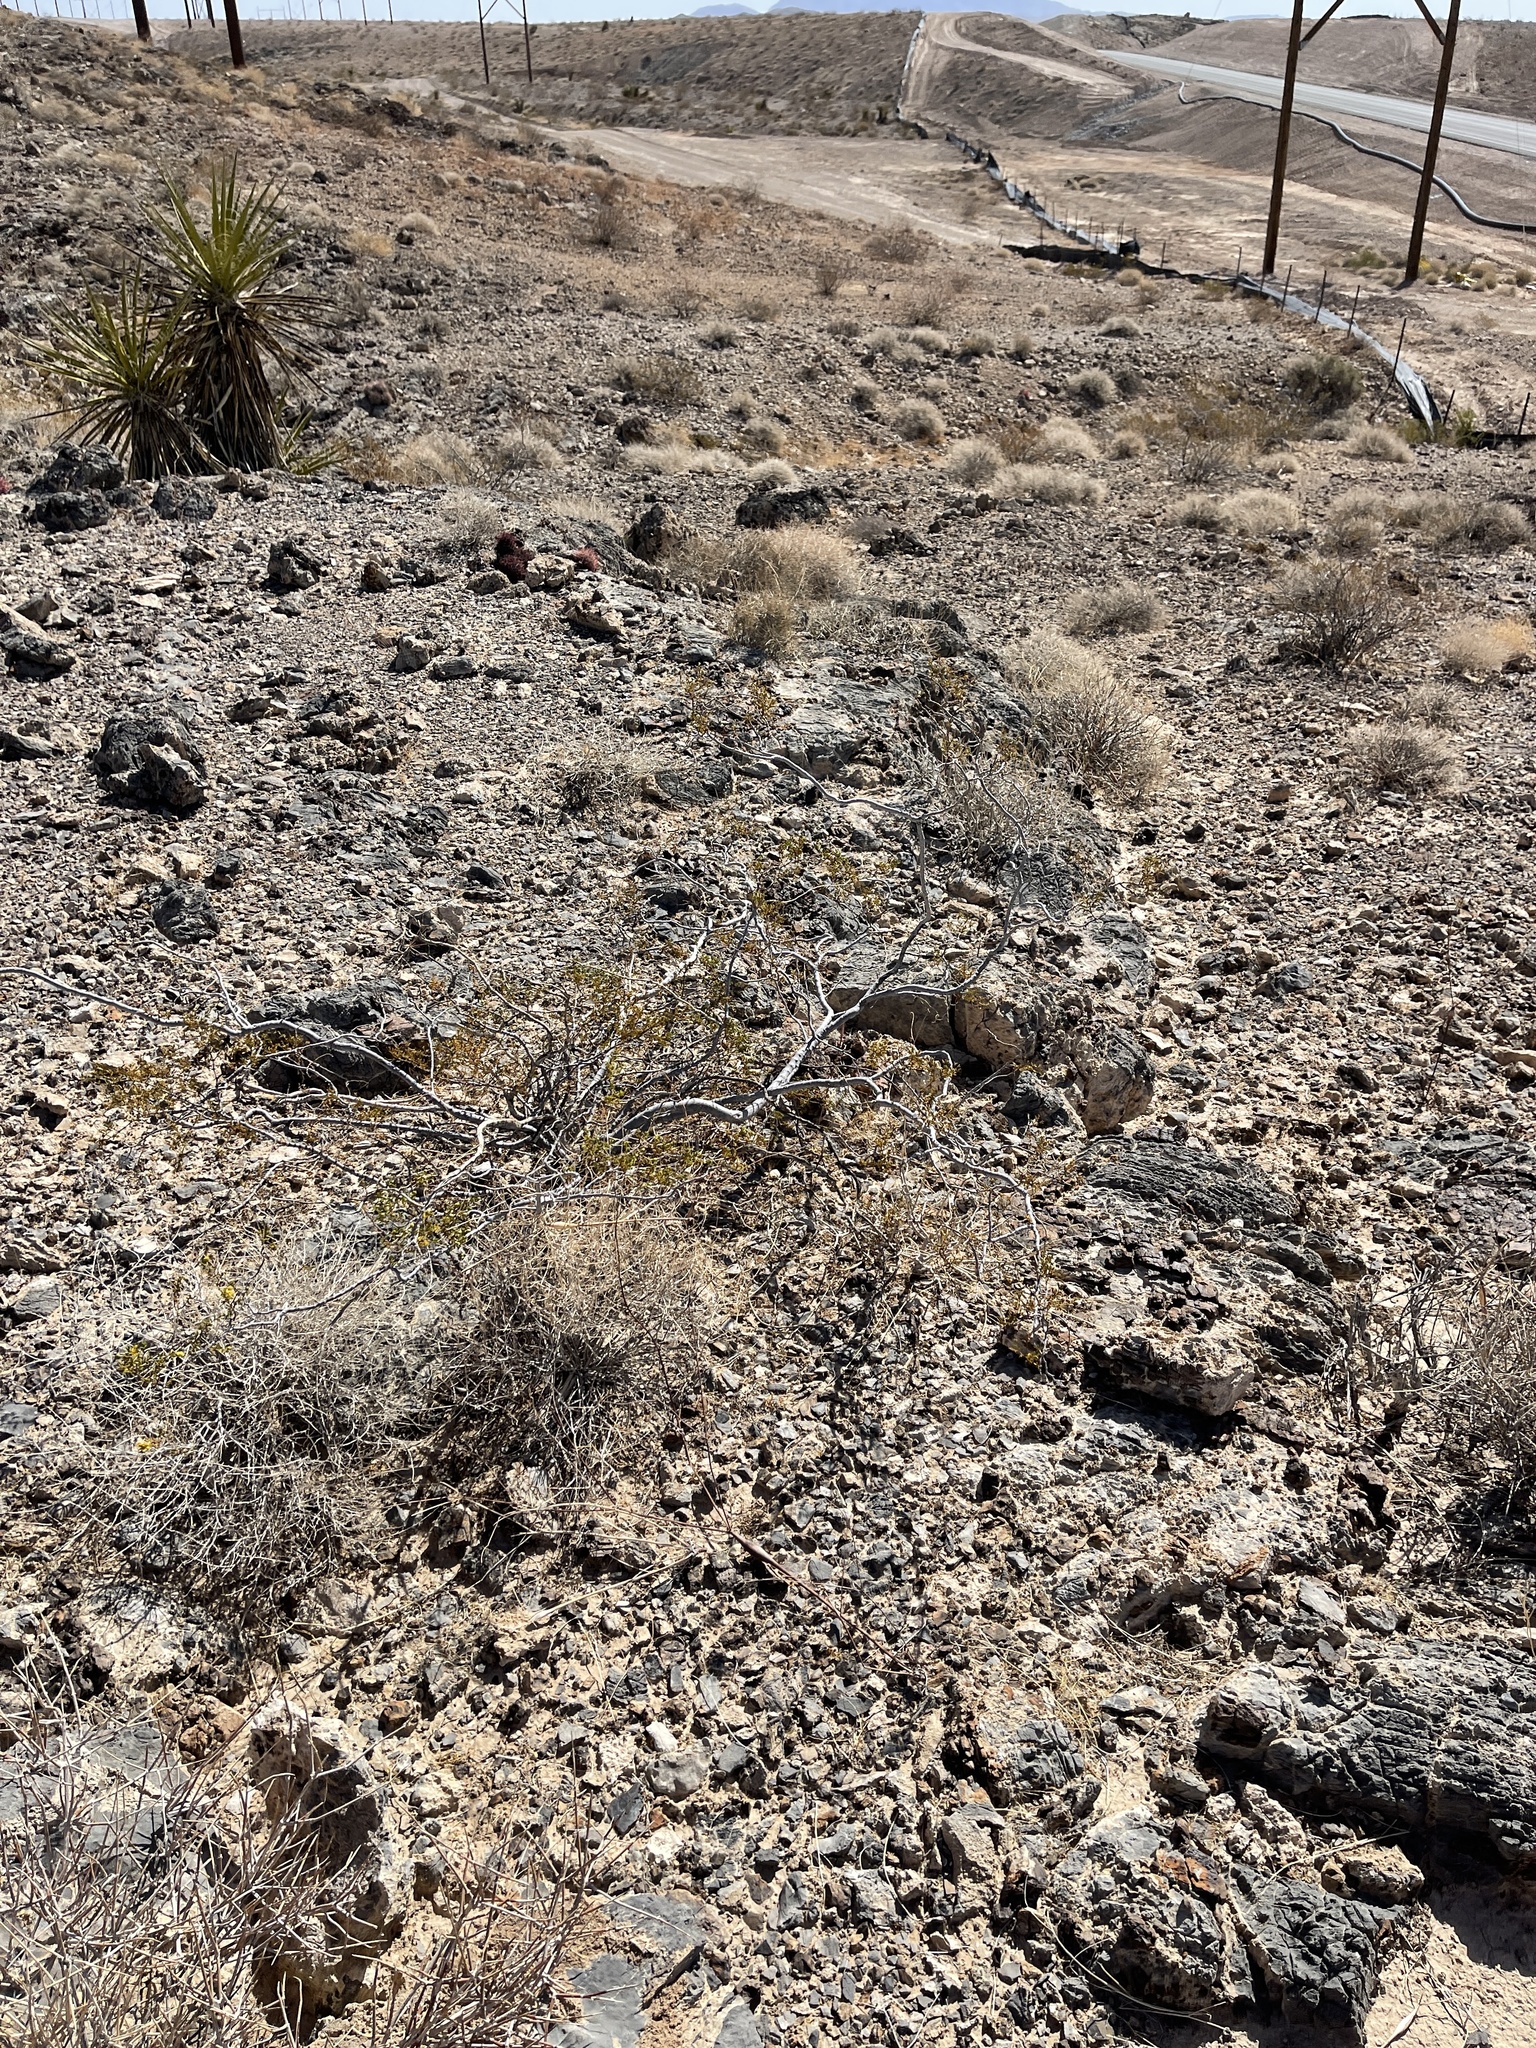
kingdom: Plantae
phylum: Tracheophyta
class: Magnoliopsida
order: Zygophyllales
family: Zygophyllaceae
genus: Larrea
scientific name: Larrea tridentata
